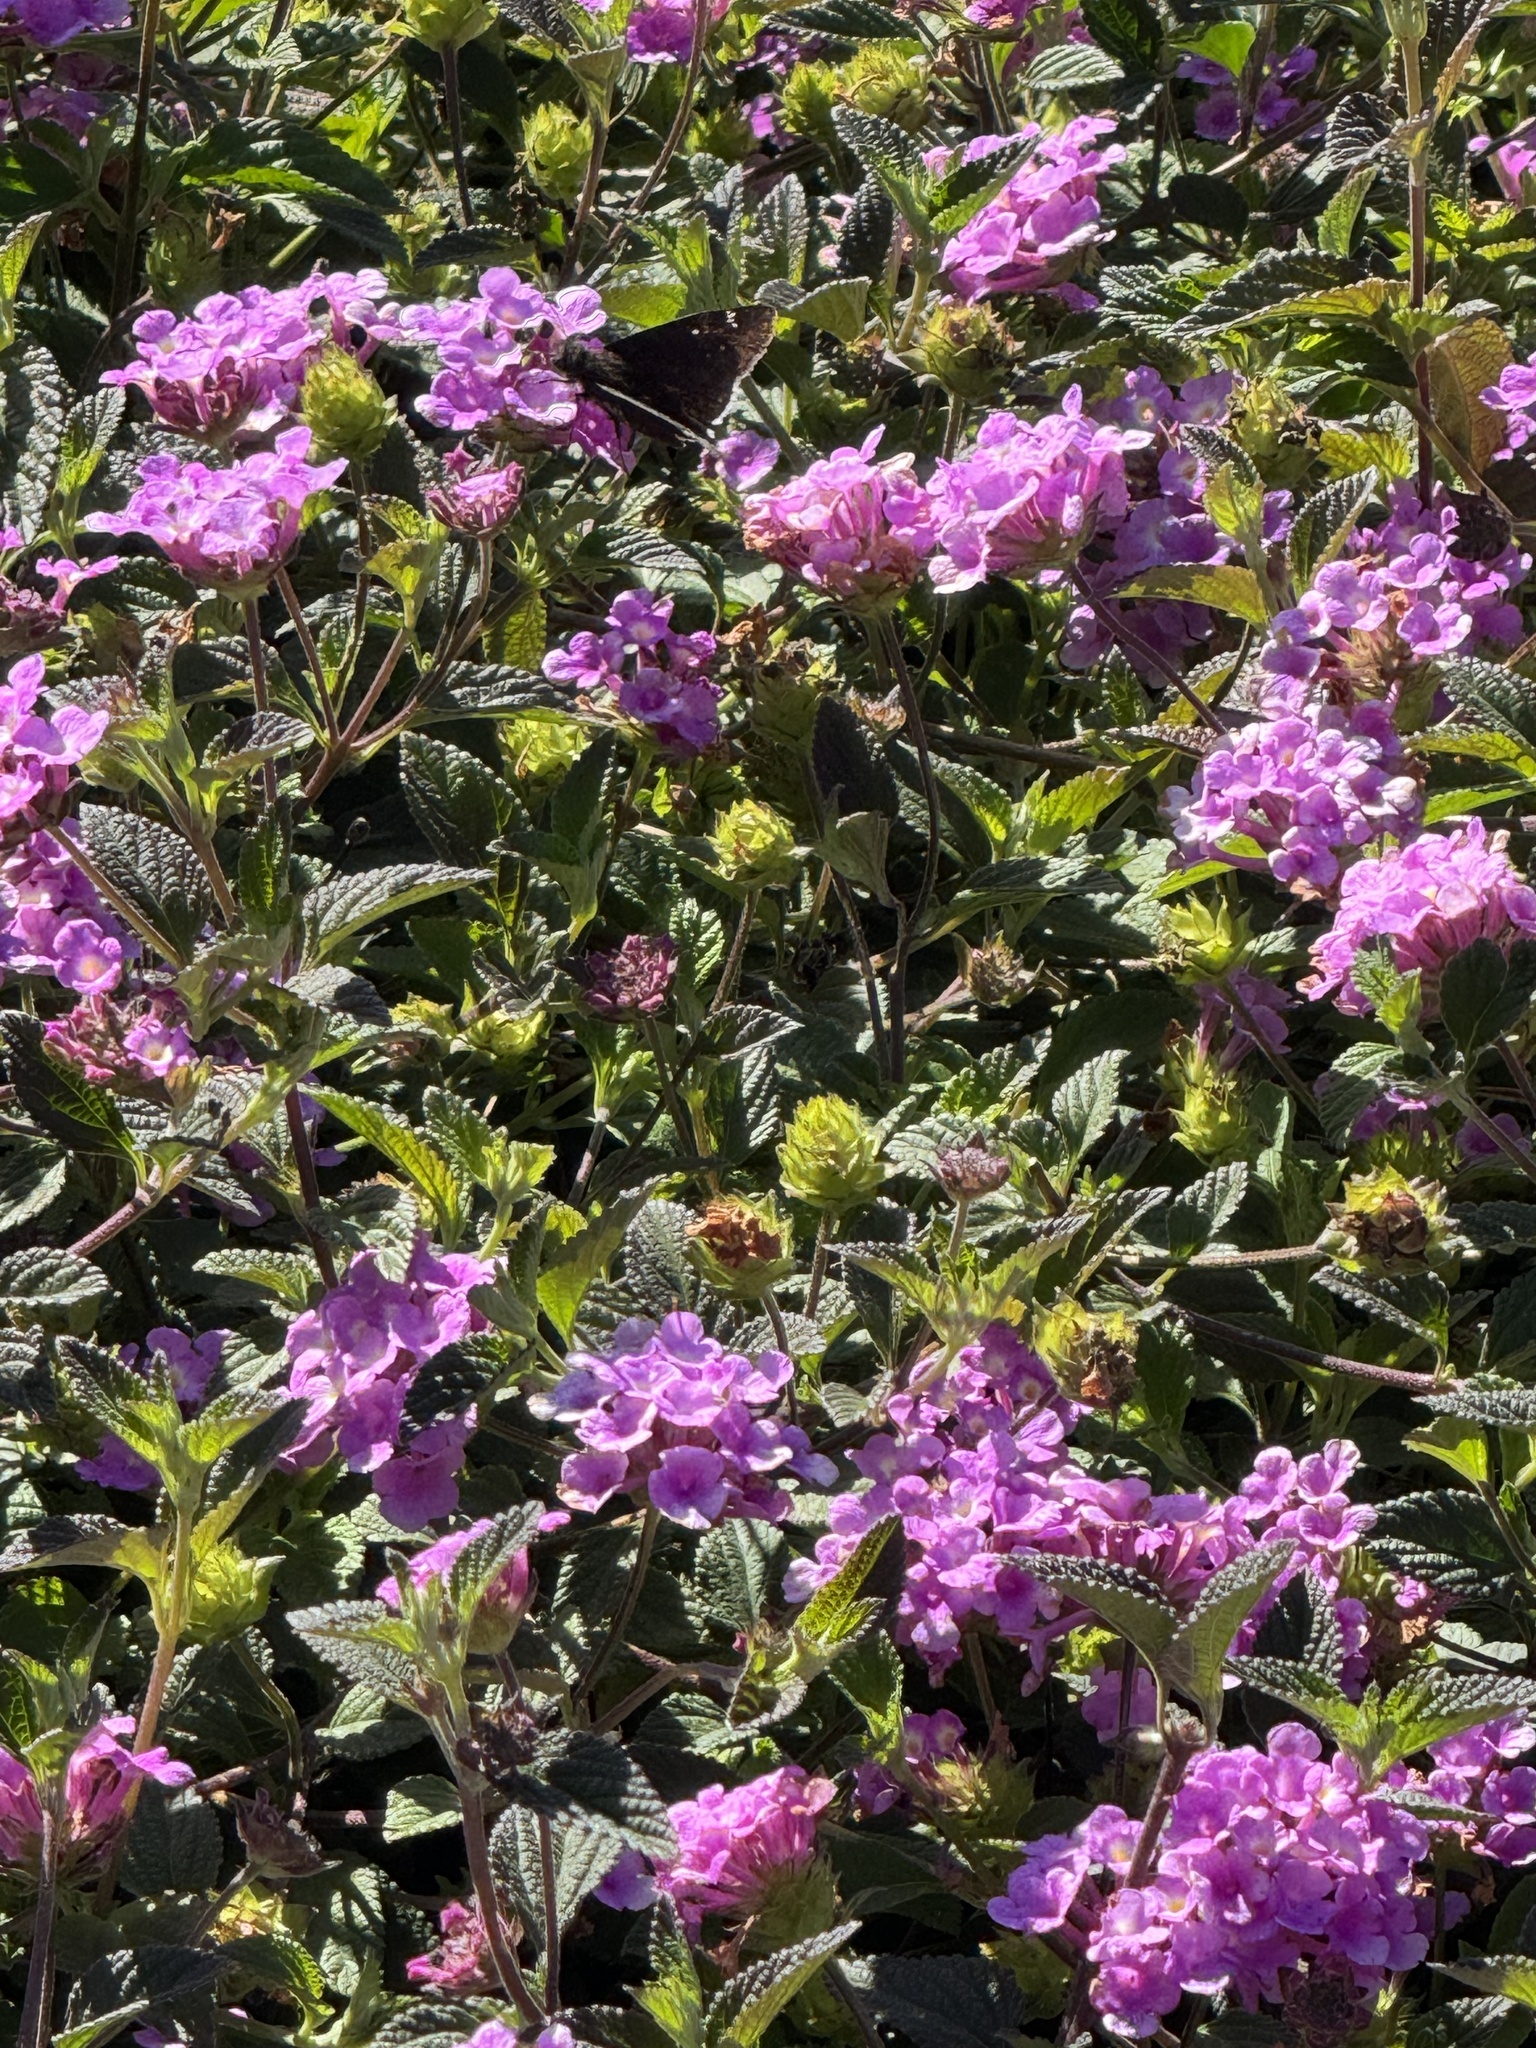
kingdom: Animalia
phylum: Arthropoda
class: Insecta
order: Lepidoptera
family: Hesperiidae
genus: Erynnis
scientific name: Erynnis tristis
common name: Mournful duskywing
